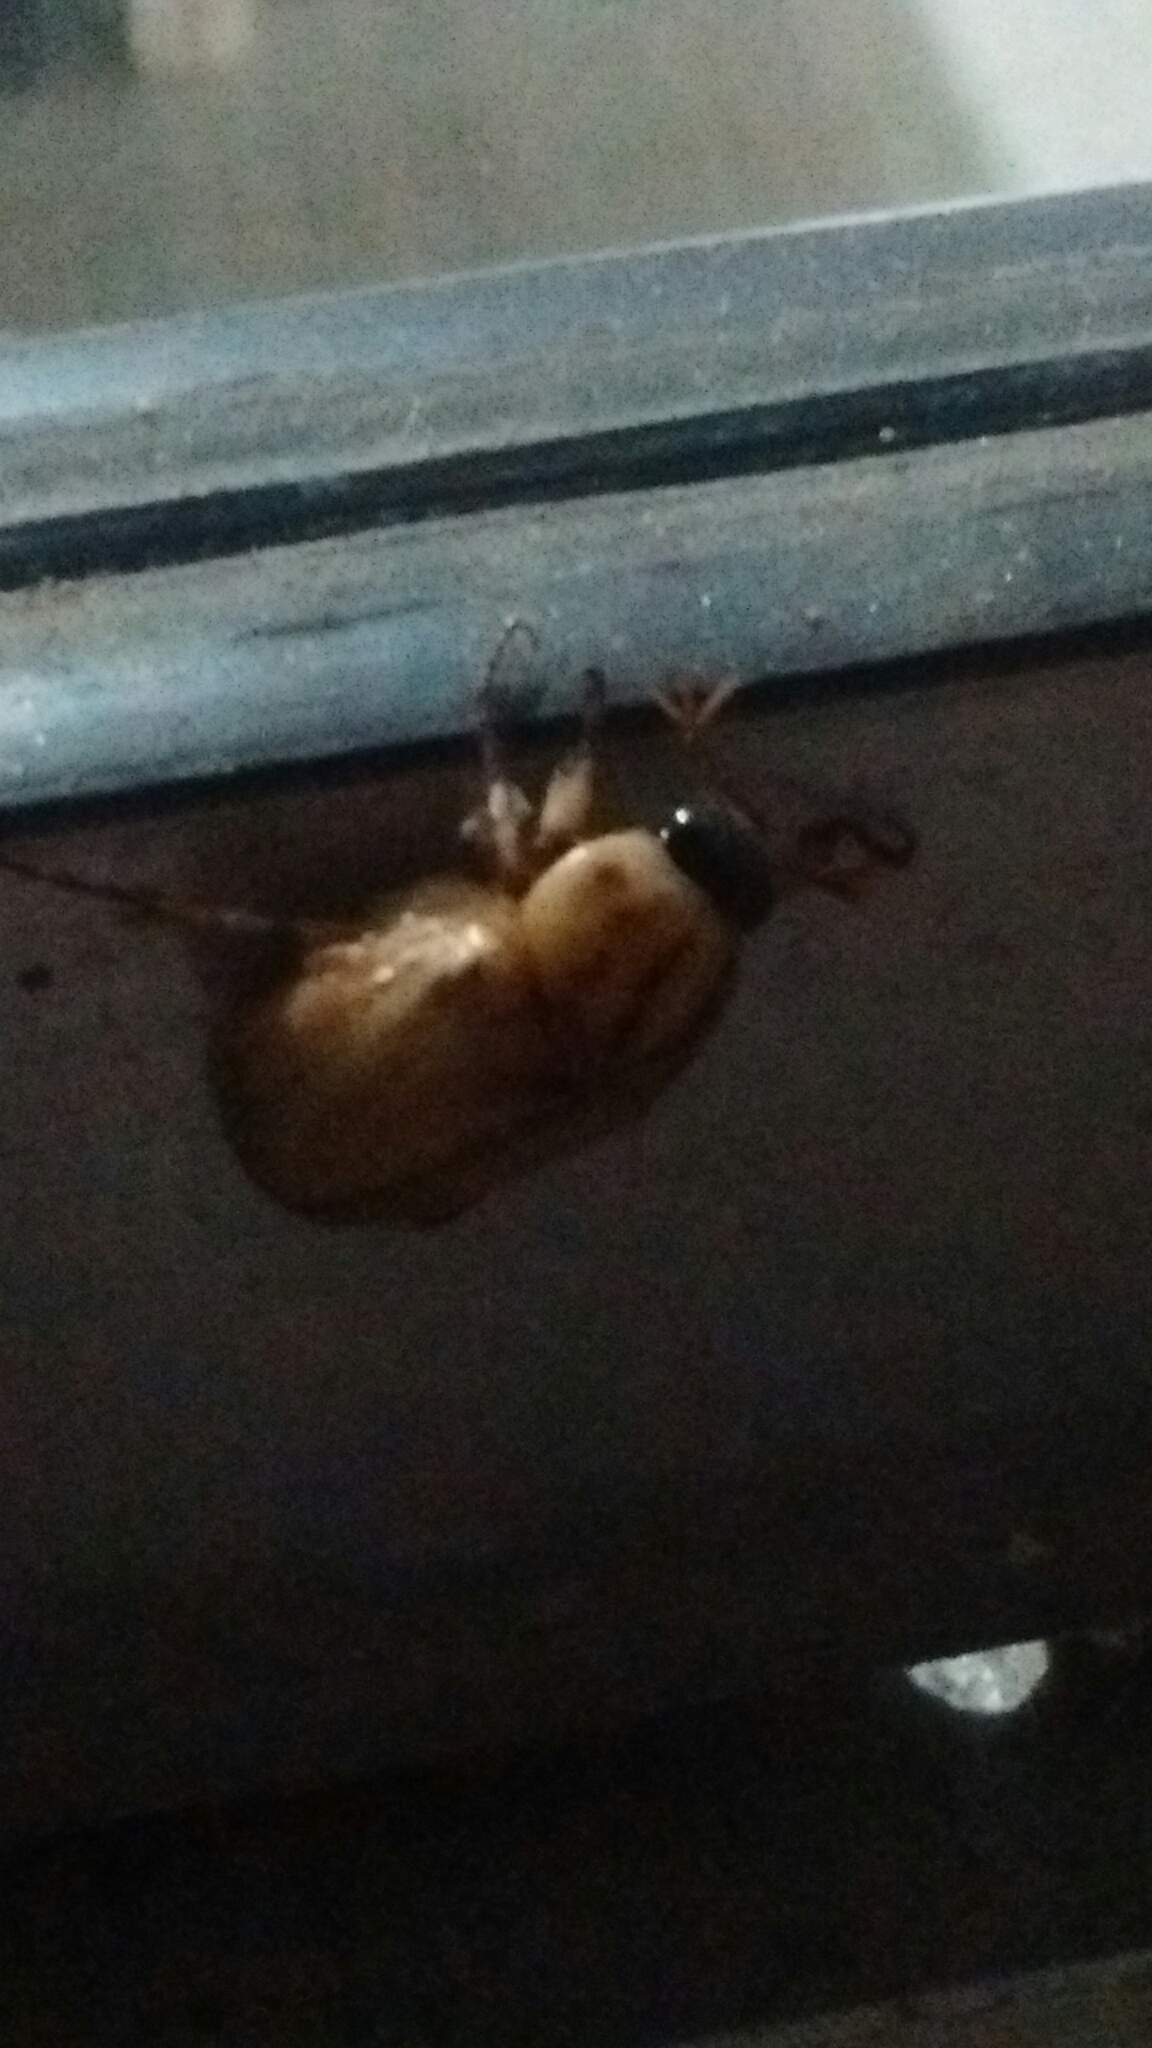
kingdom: Animalia
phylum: Arthropoda
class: Insecta
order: Coleoptera
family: Scarabaeidae
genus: Cyclocephala
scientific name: Cyclocephala signaticollis
